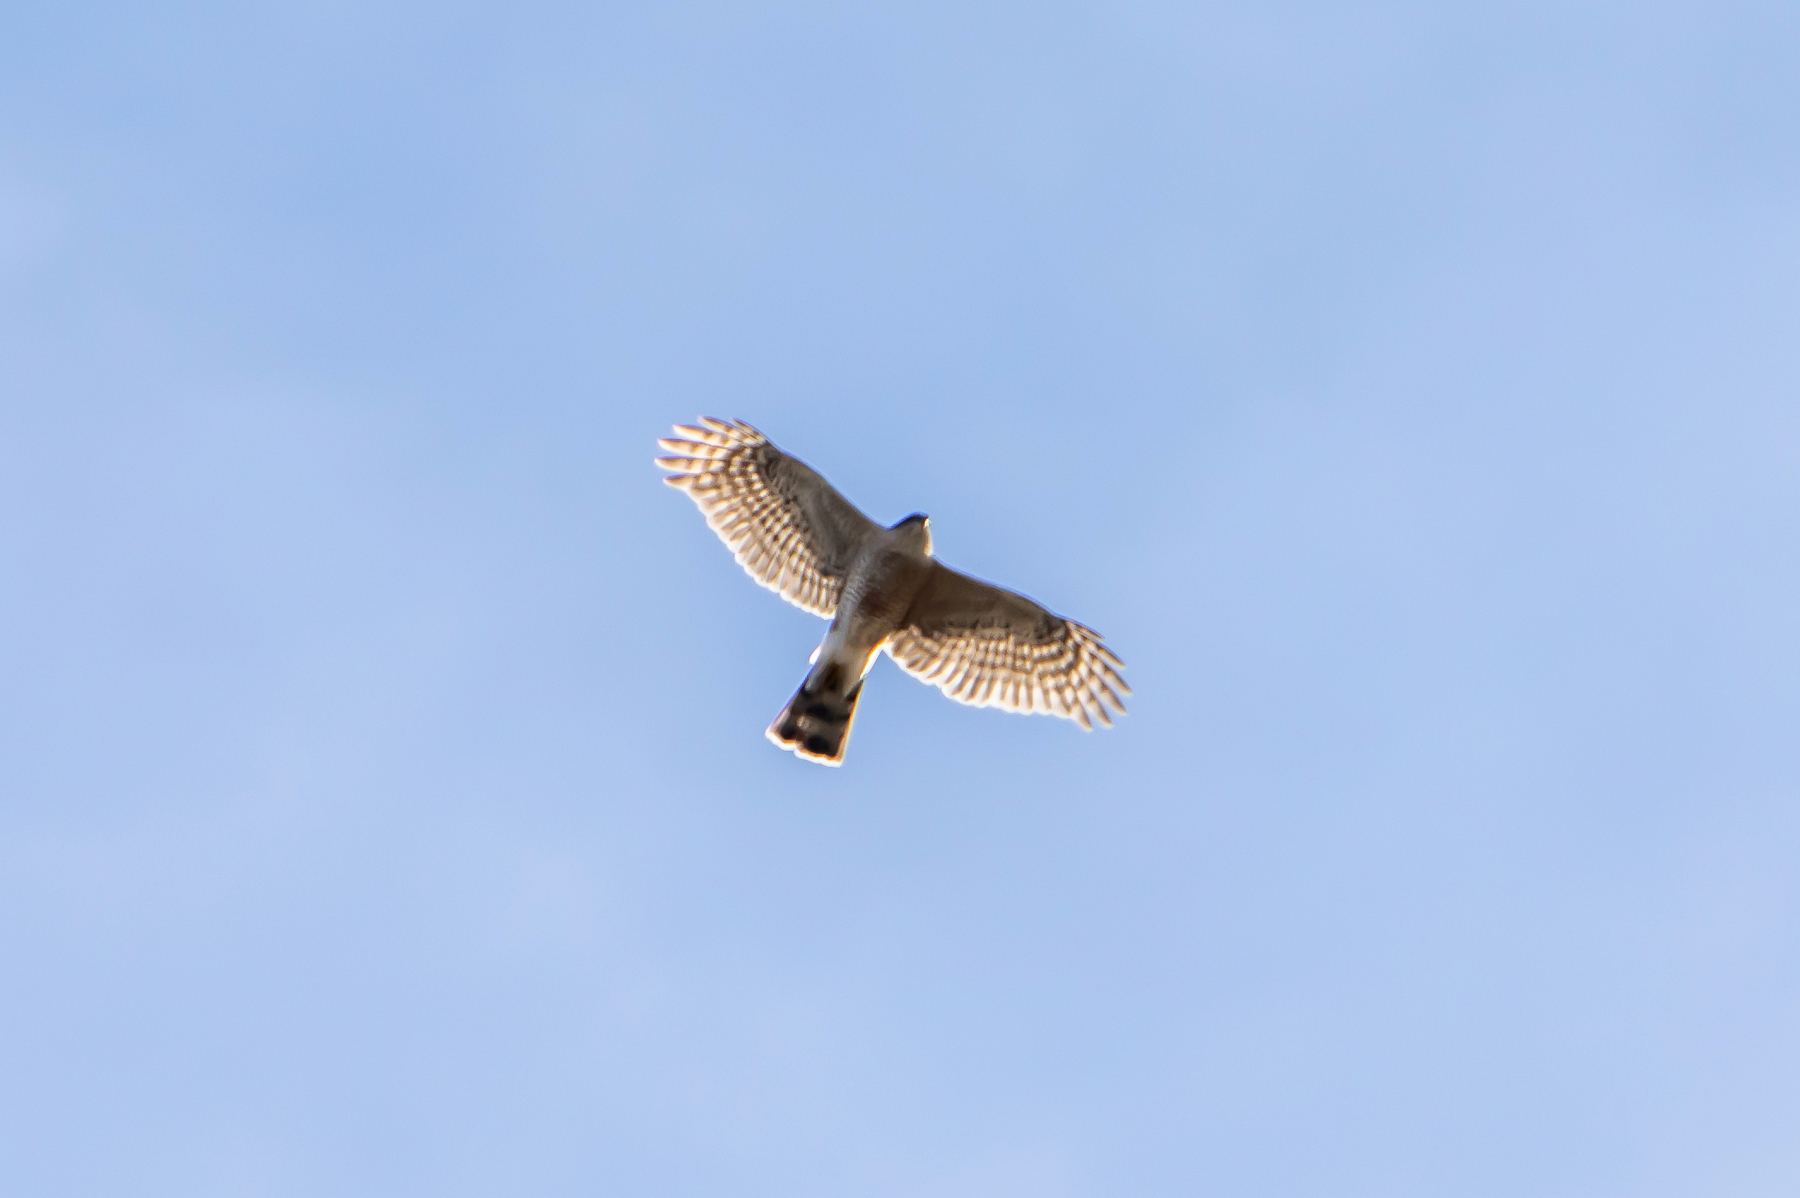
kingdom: Animalia
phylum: Chordata
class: Aves
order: Accipitriformes
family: Accipitridae
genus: Accipiter
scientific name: Accipiter striatus
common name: Sharp-shinned hawk
